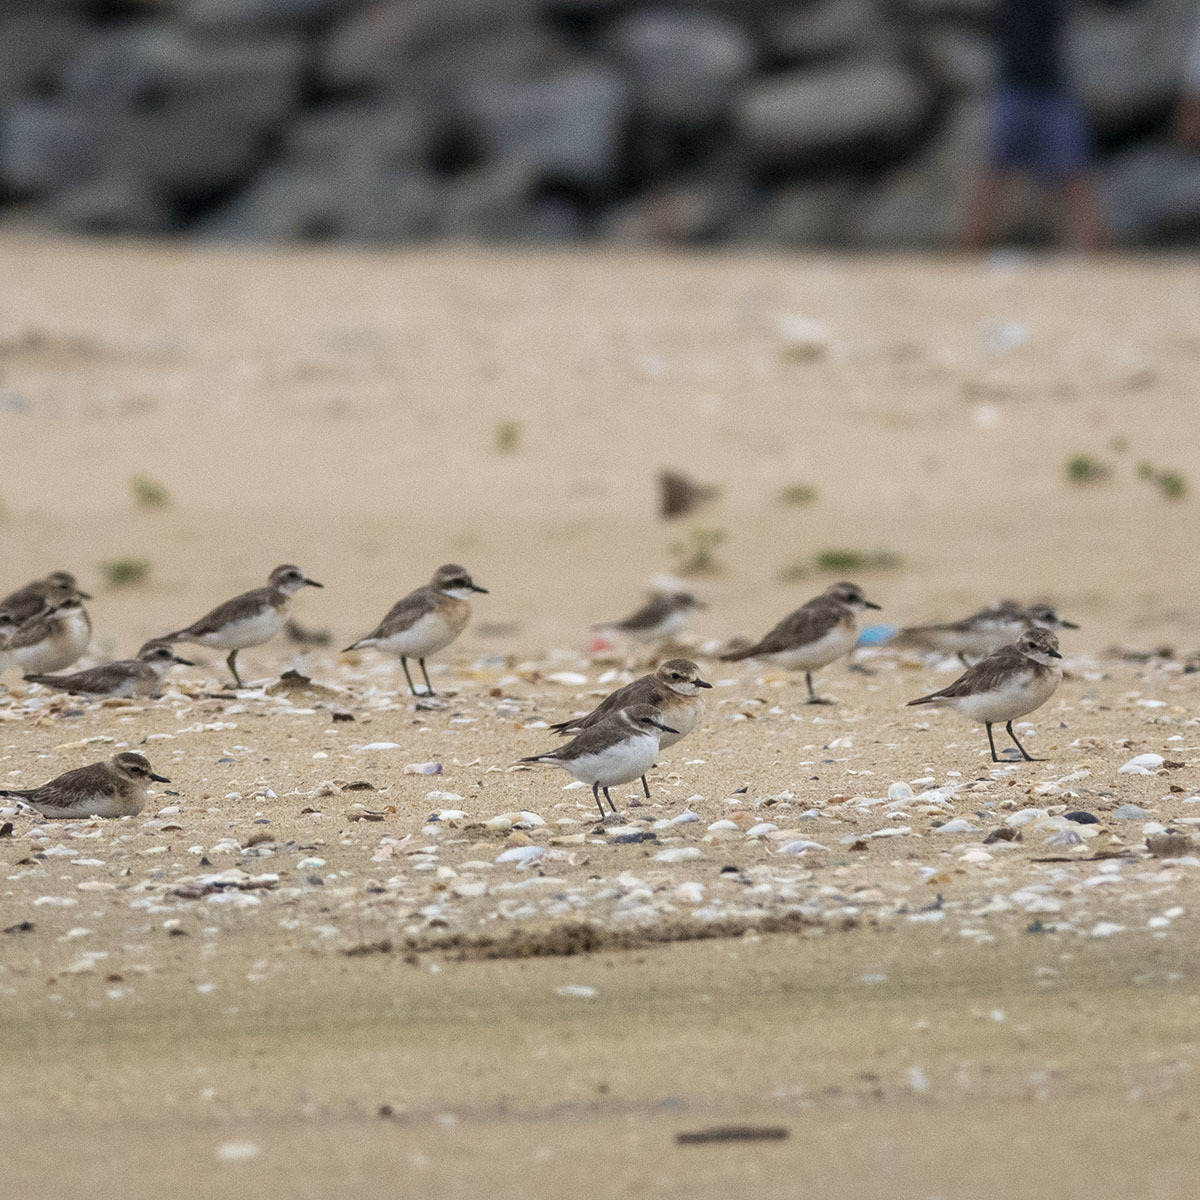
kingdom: Animalia
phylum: Chordata
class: Aves
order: Charadriiformes
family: Charadriidae
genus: Anarhynchus
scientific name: Anarhynchus
